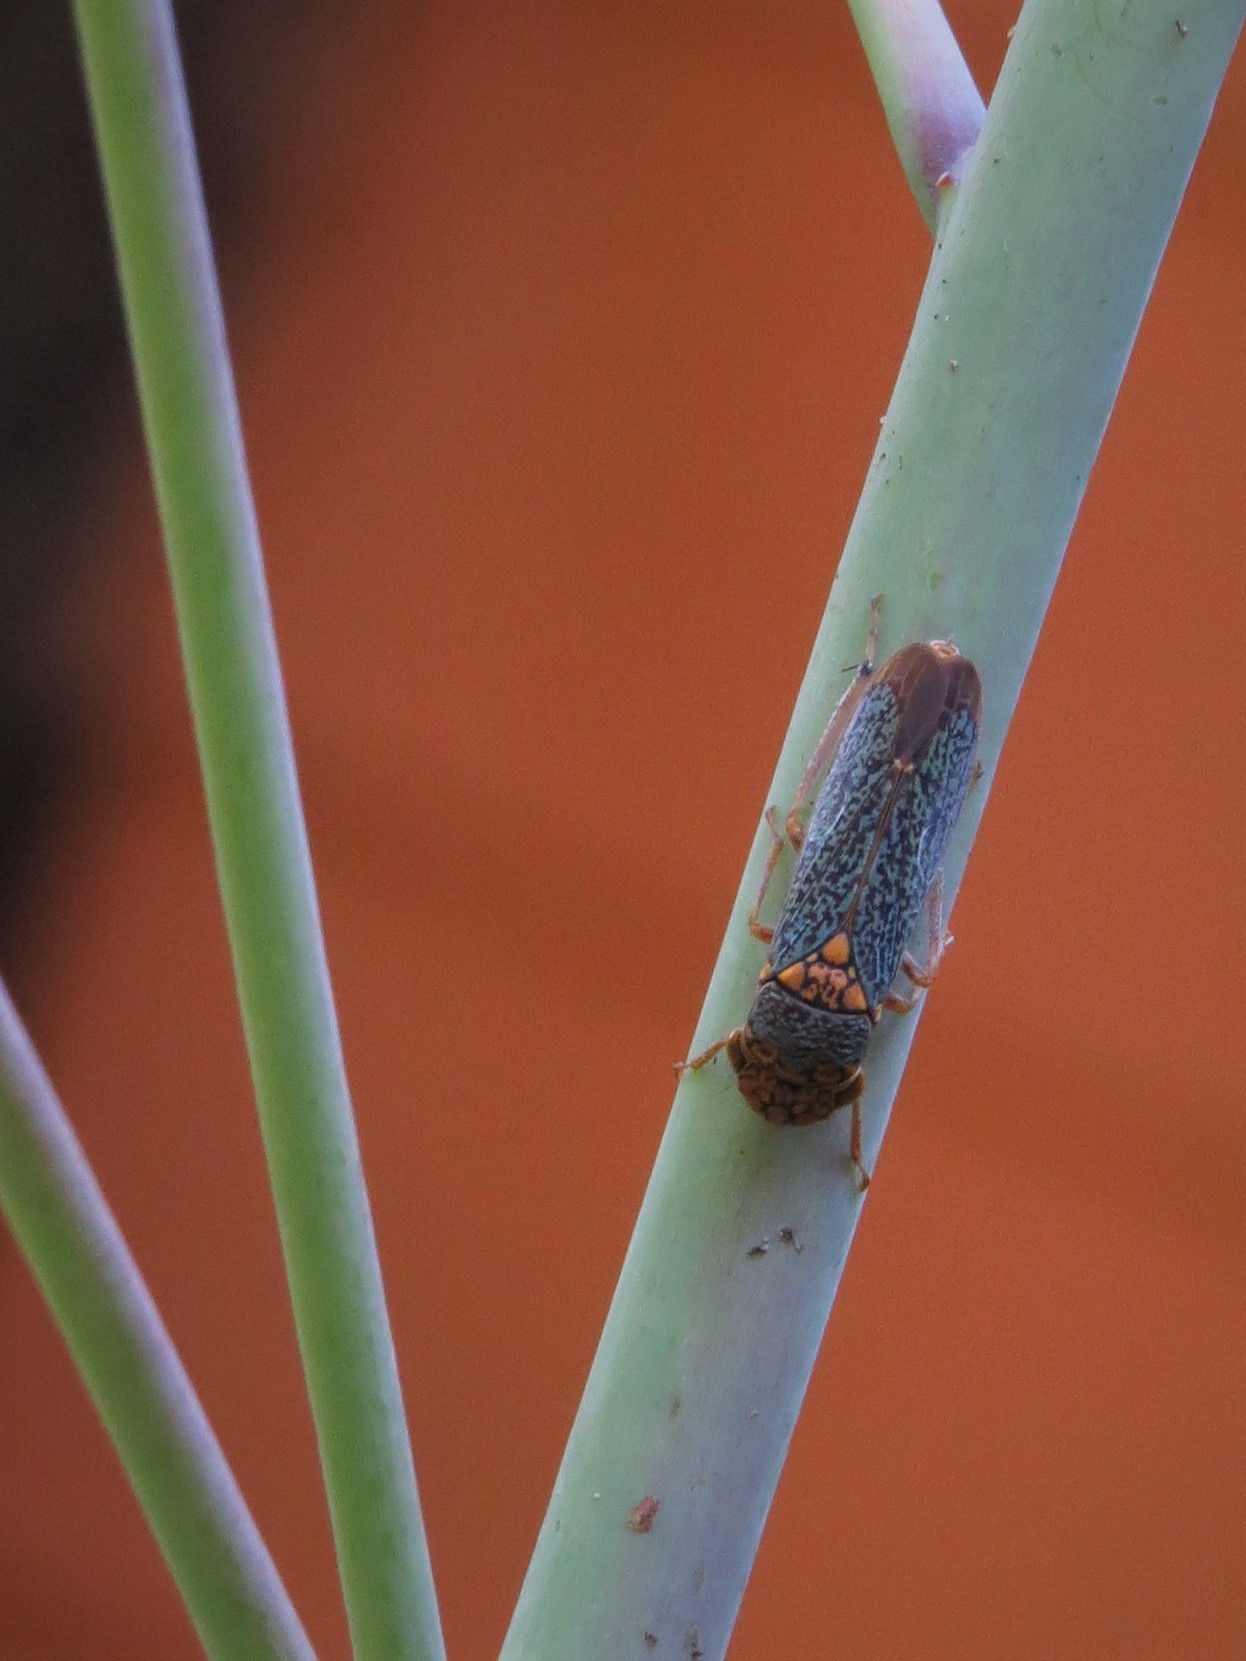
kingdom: Animalia
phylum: Arthropoda
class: Insecta
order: Hemiptera
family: Cicadellidae
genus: Oncometopia
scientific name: Oncometopia orbona
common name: Broad-headed sharpshooter
